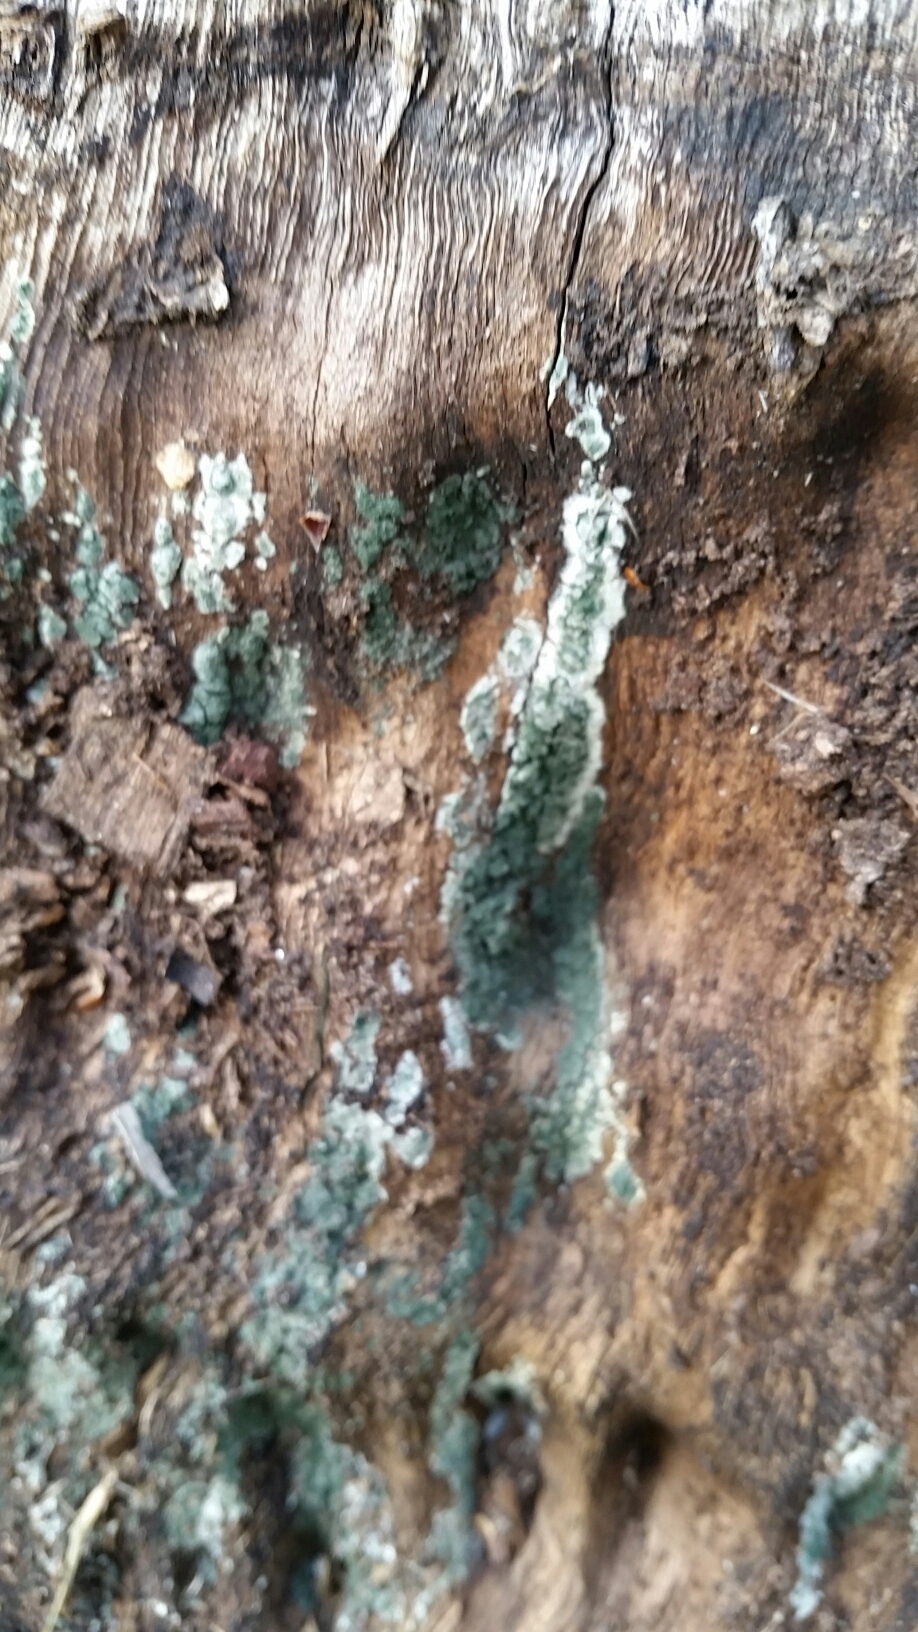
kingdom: Fungi
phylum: Ascomycota
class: Sordariomycetes
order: Hypocreales
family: Hypocreaceae
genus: Trichoderma
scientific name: Trichoderma viride
